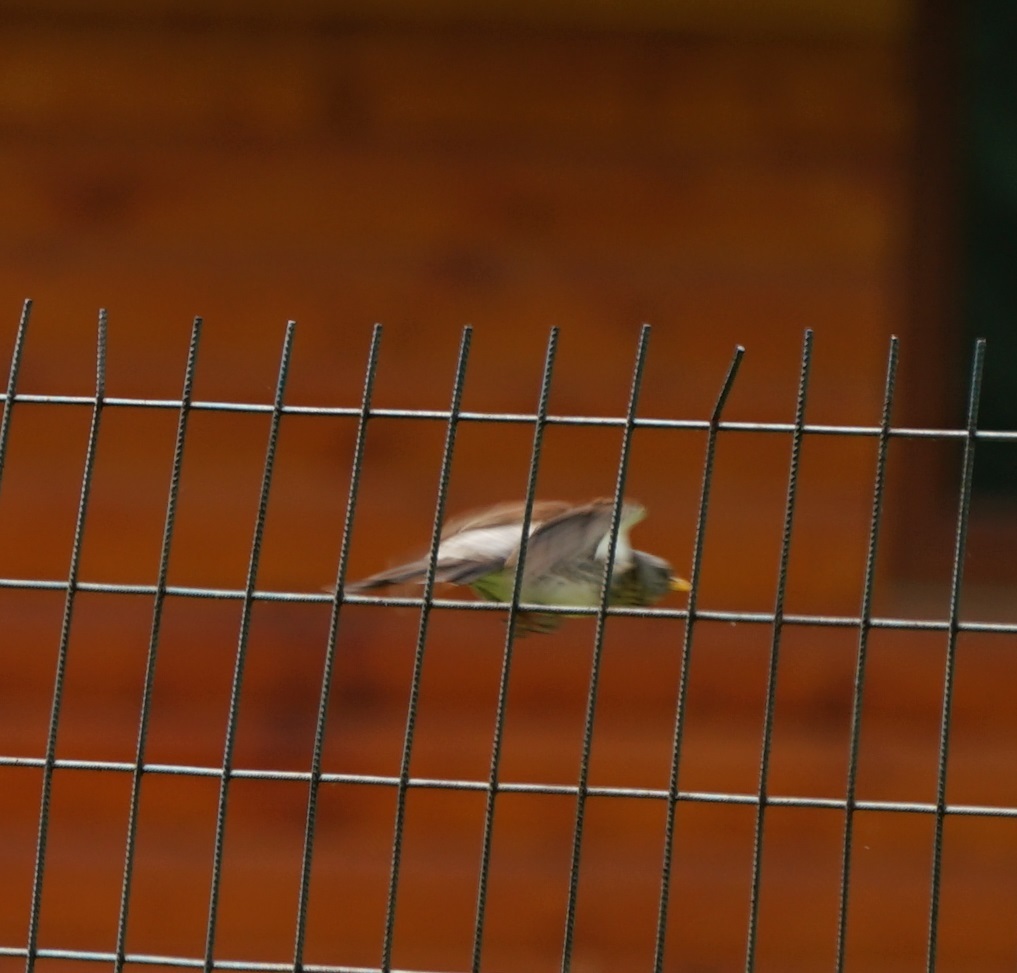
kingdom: Animalia
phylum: Chordata
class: Aves
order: Passeriformes
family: Turdidae
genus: Turdus
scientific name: Turdus pilaris
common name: Fieldfare
